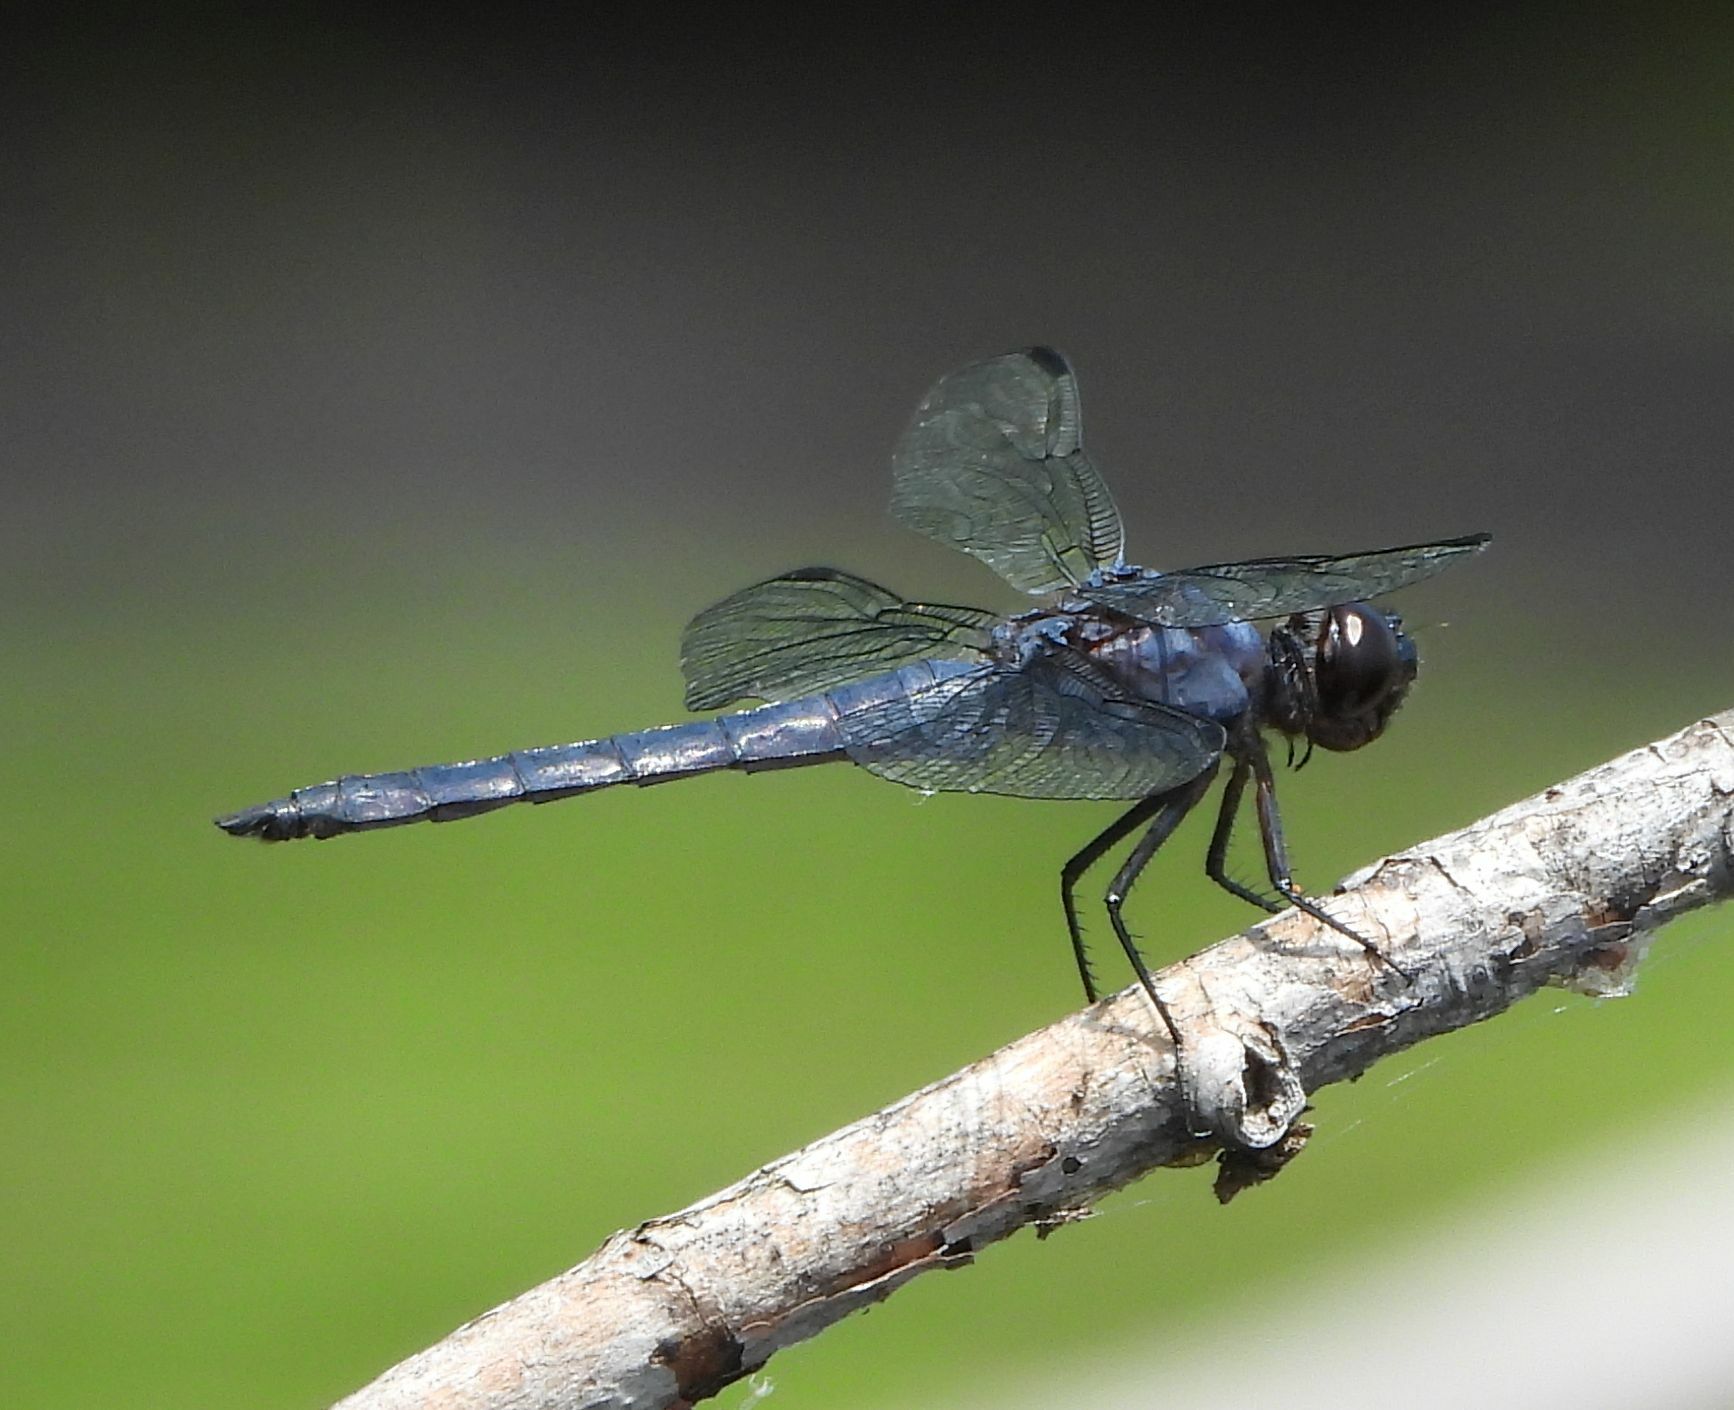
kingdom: Animalia
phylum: Arthropoda
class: Insecta
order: Odonata
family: Libellulidae
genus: Libellula
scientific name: Libellula incesta
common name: Slaty skimmer
